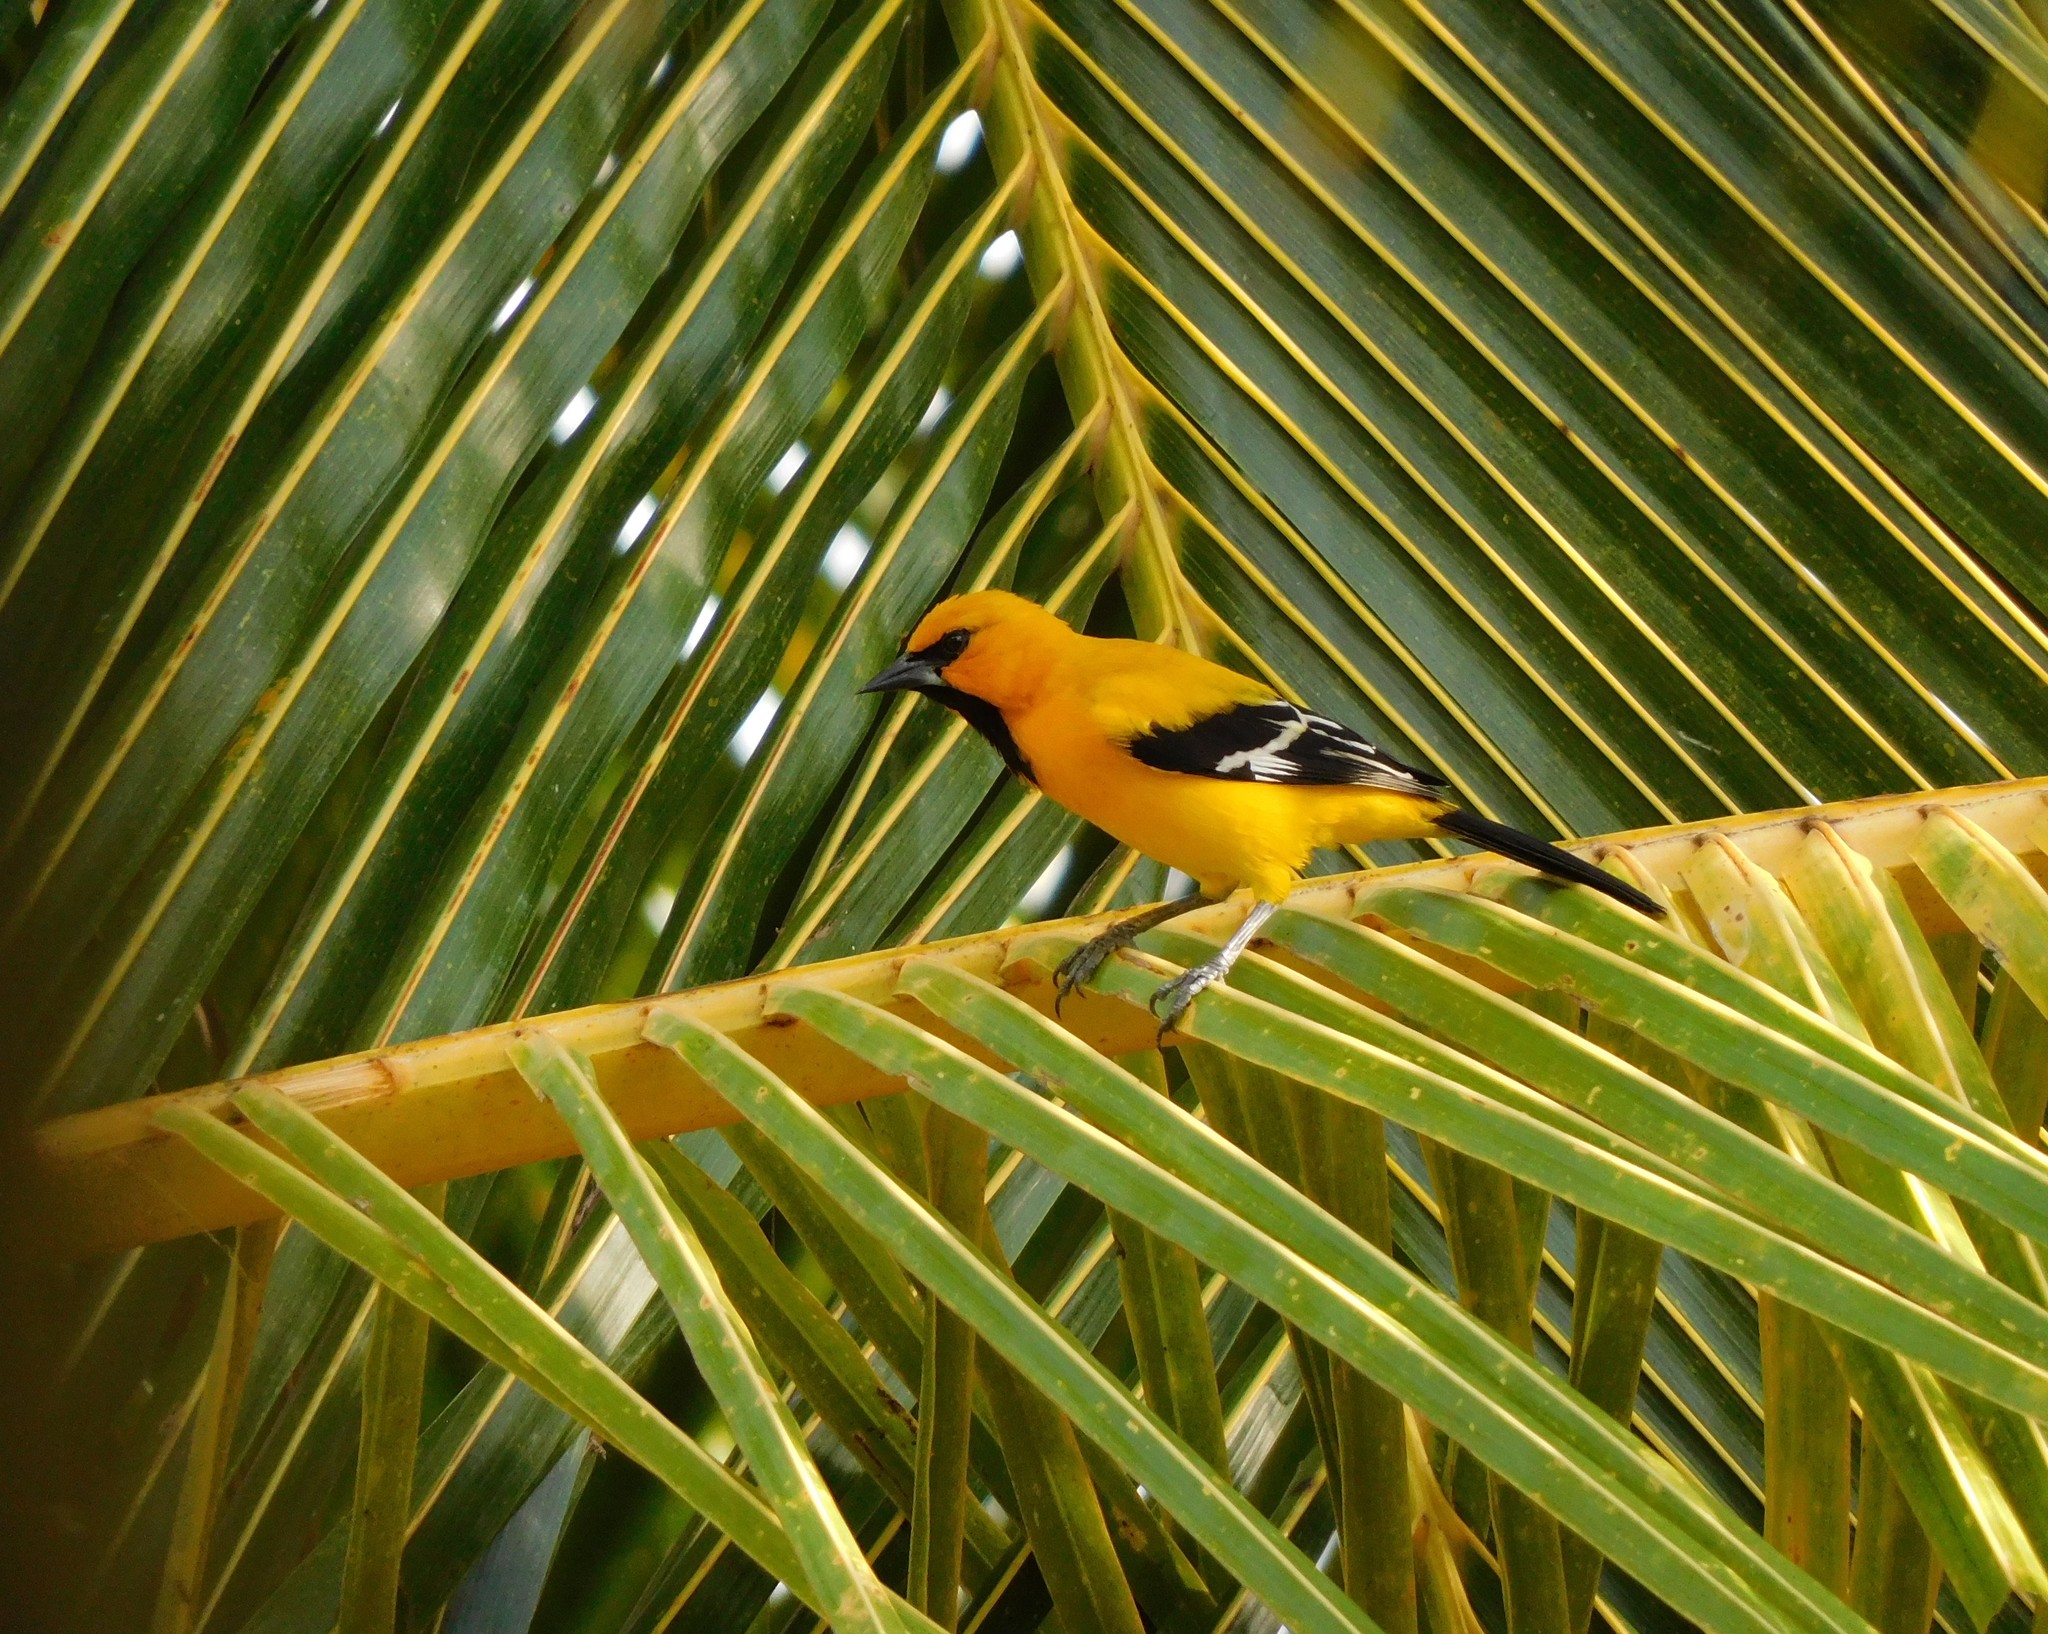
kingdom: Animalia
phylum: Chordata
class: Aves
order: Passeriformes
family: Icteridae
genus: Icterus
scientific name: Icterus nigrogularis
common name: Yellow oriole
